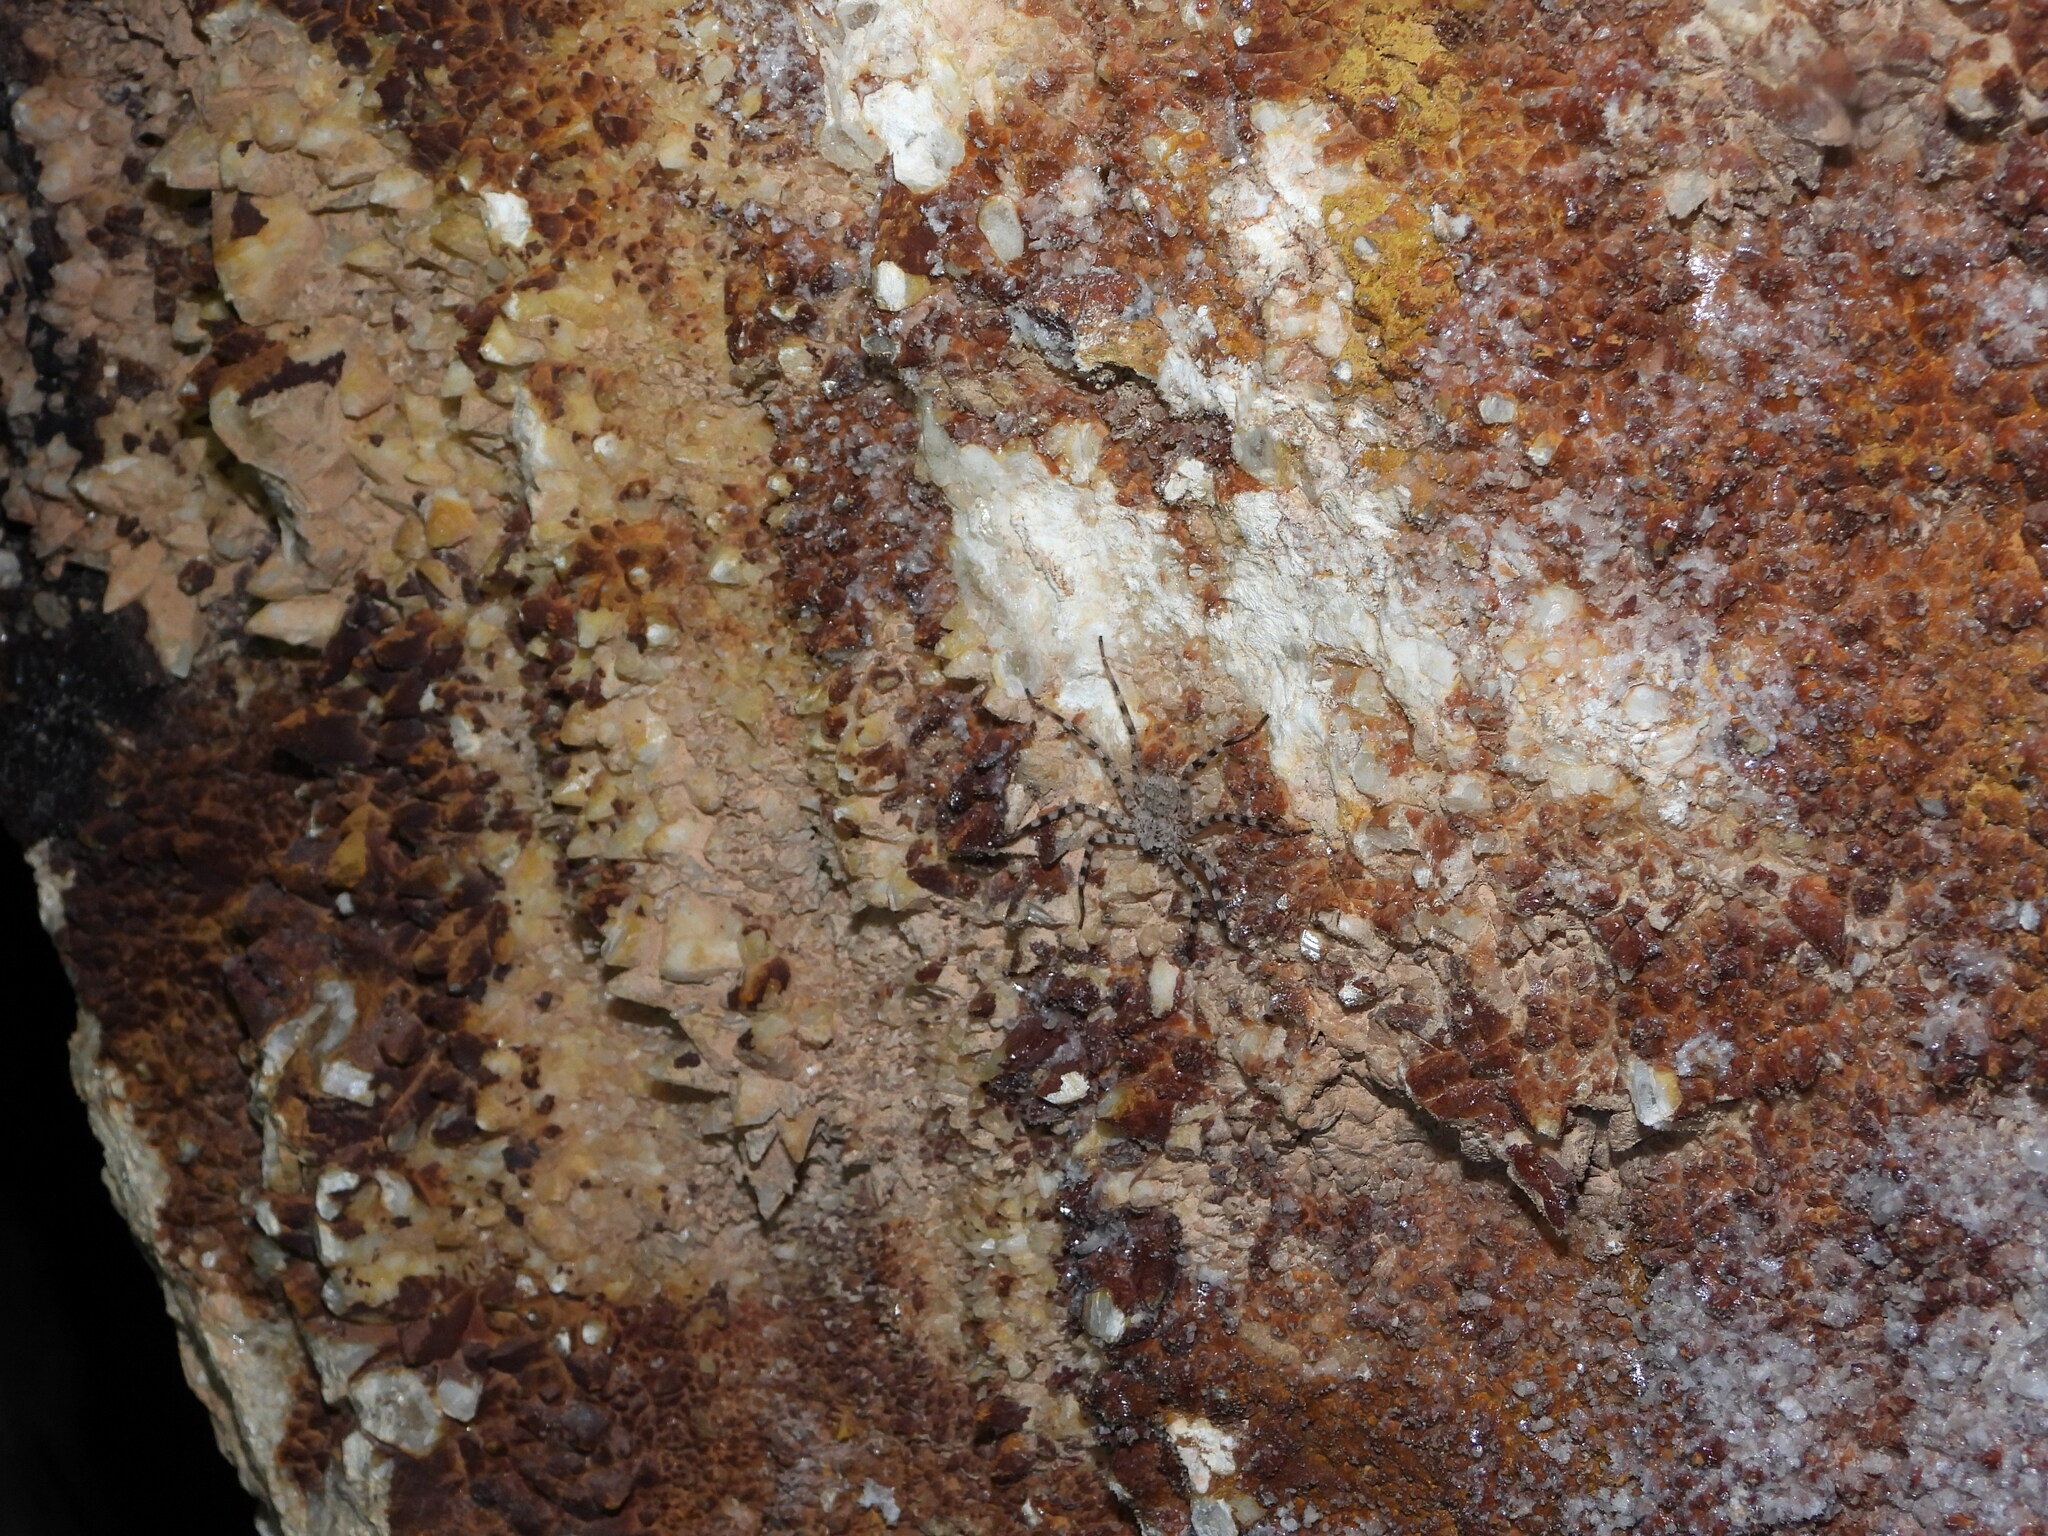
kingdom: Animalia
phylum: Arthropoda
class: Arachnida
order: Araneae
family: Selenopidae
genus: Selenops
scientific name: Selenops actophilus
